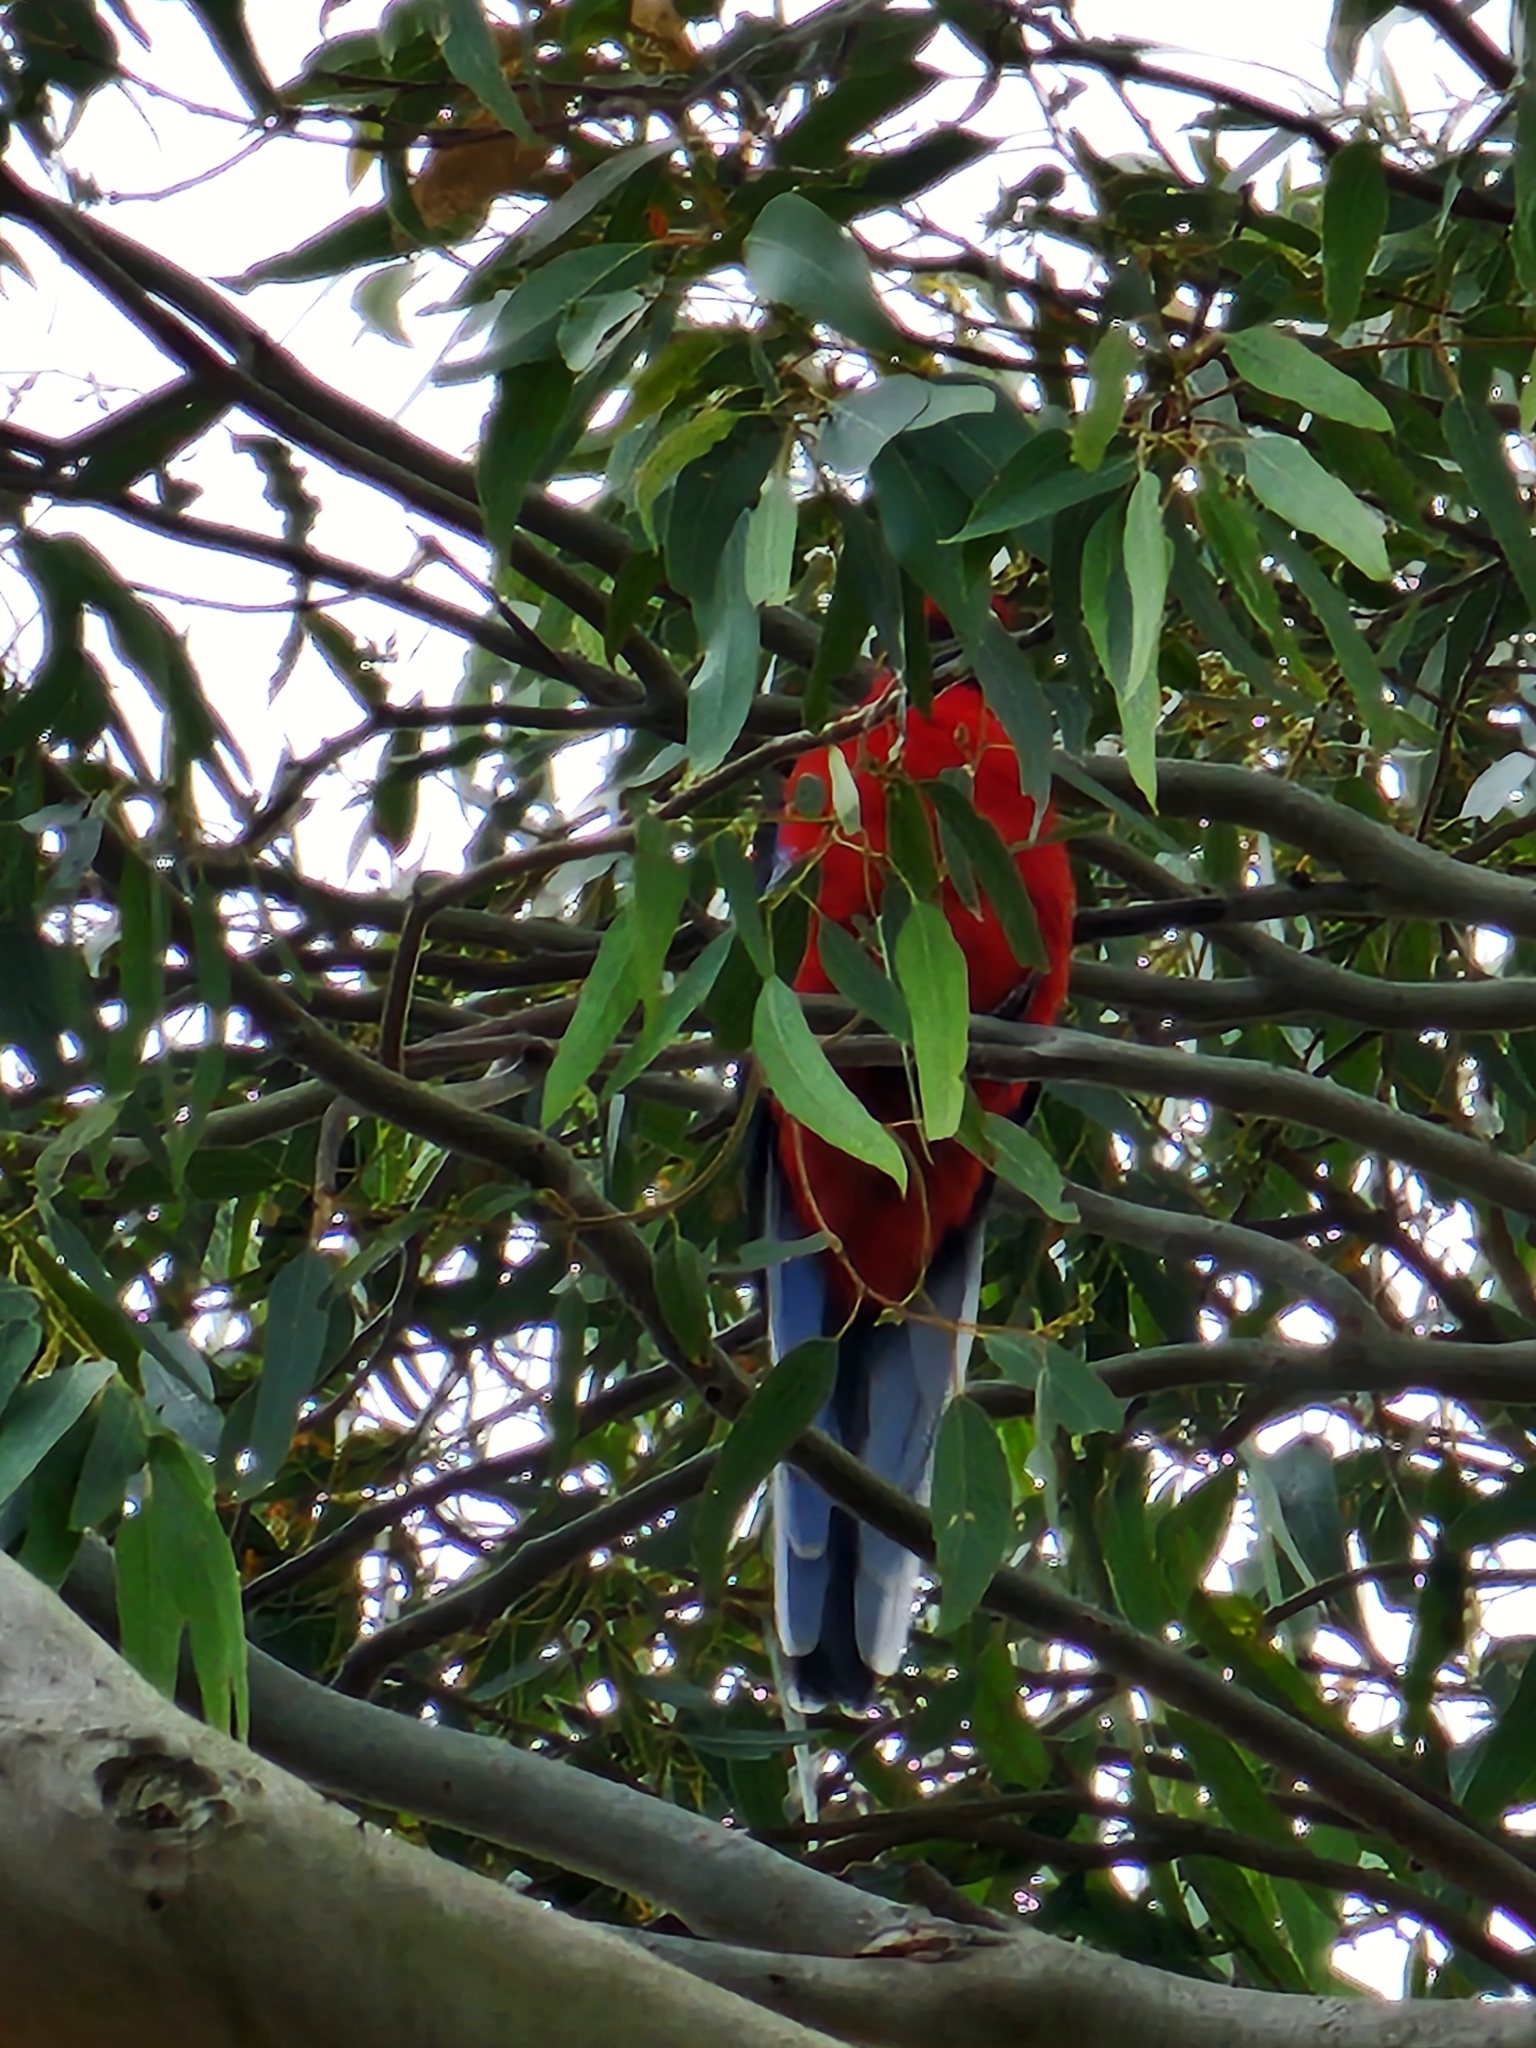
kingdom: Animalia
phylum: Chordata
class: Aves
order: Psittaciformes
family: Psittacidae
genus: Platycercus
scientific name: Platycercus elegans
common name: Crimson rosella
